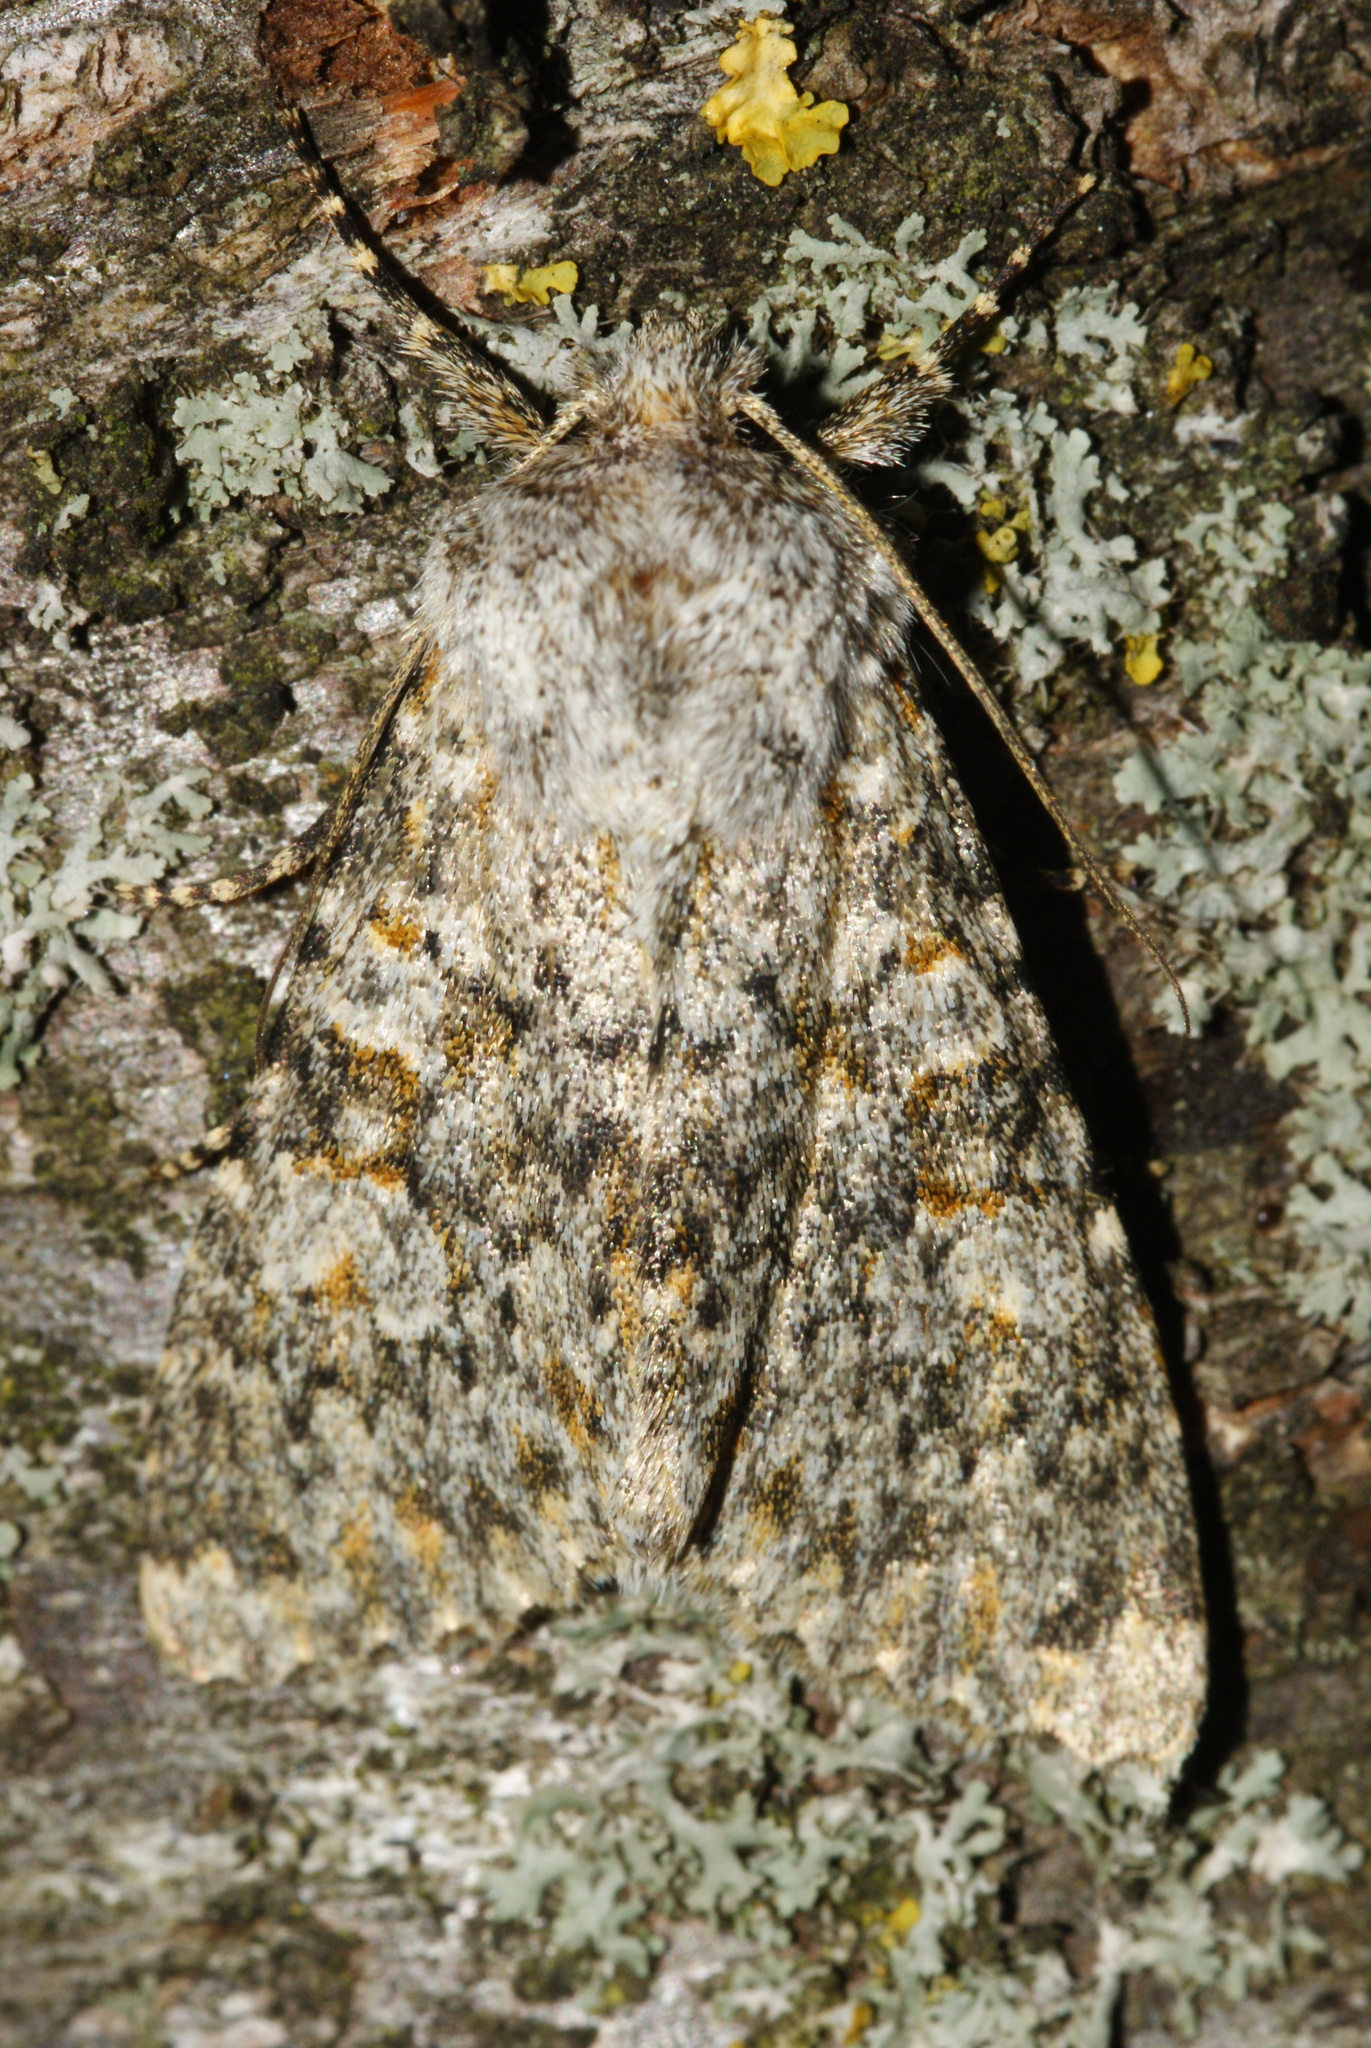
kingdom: Animalia
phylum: Arthropoda
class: Insecta
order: Lepidoptera
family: Noctuidae
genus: Polymixis
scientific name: Polymixis flavicincta
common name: Large ranunculus
